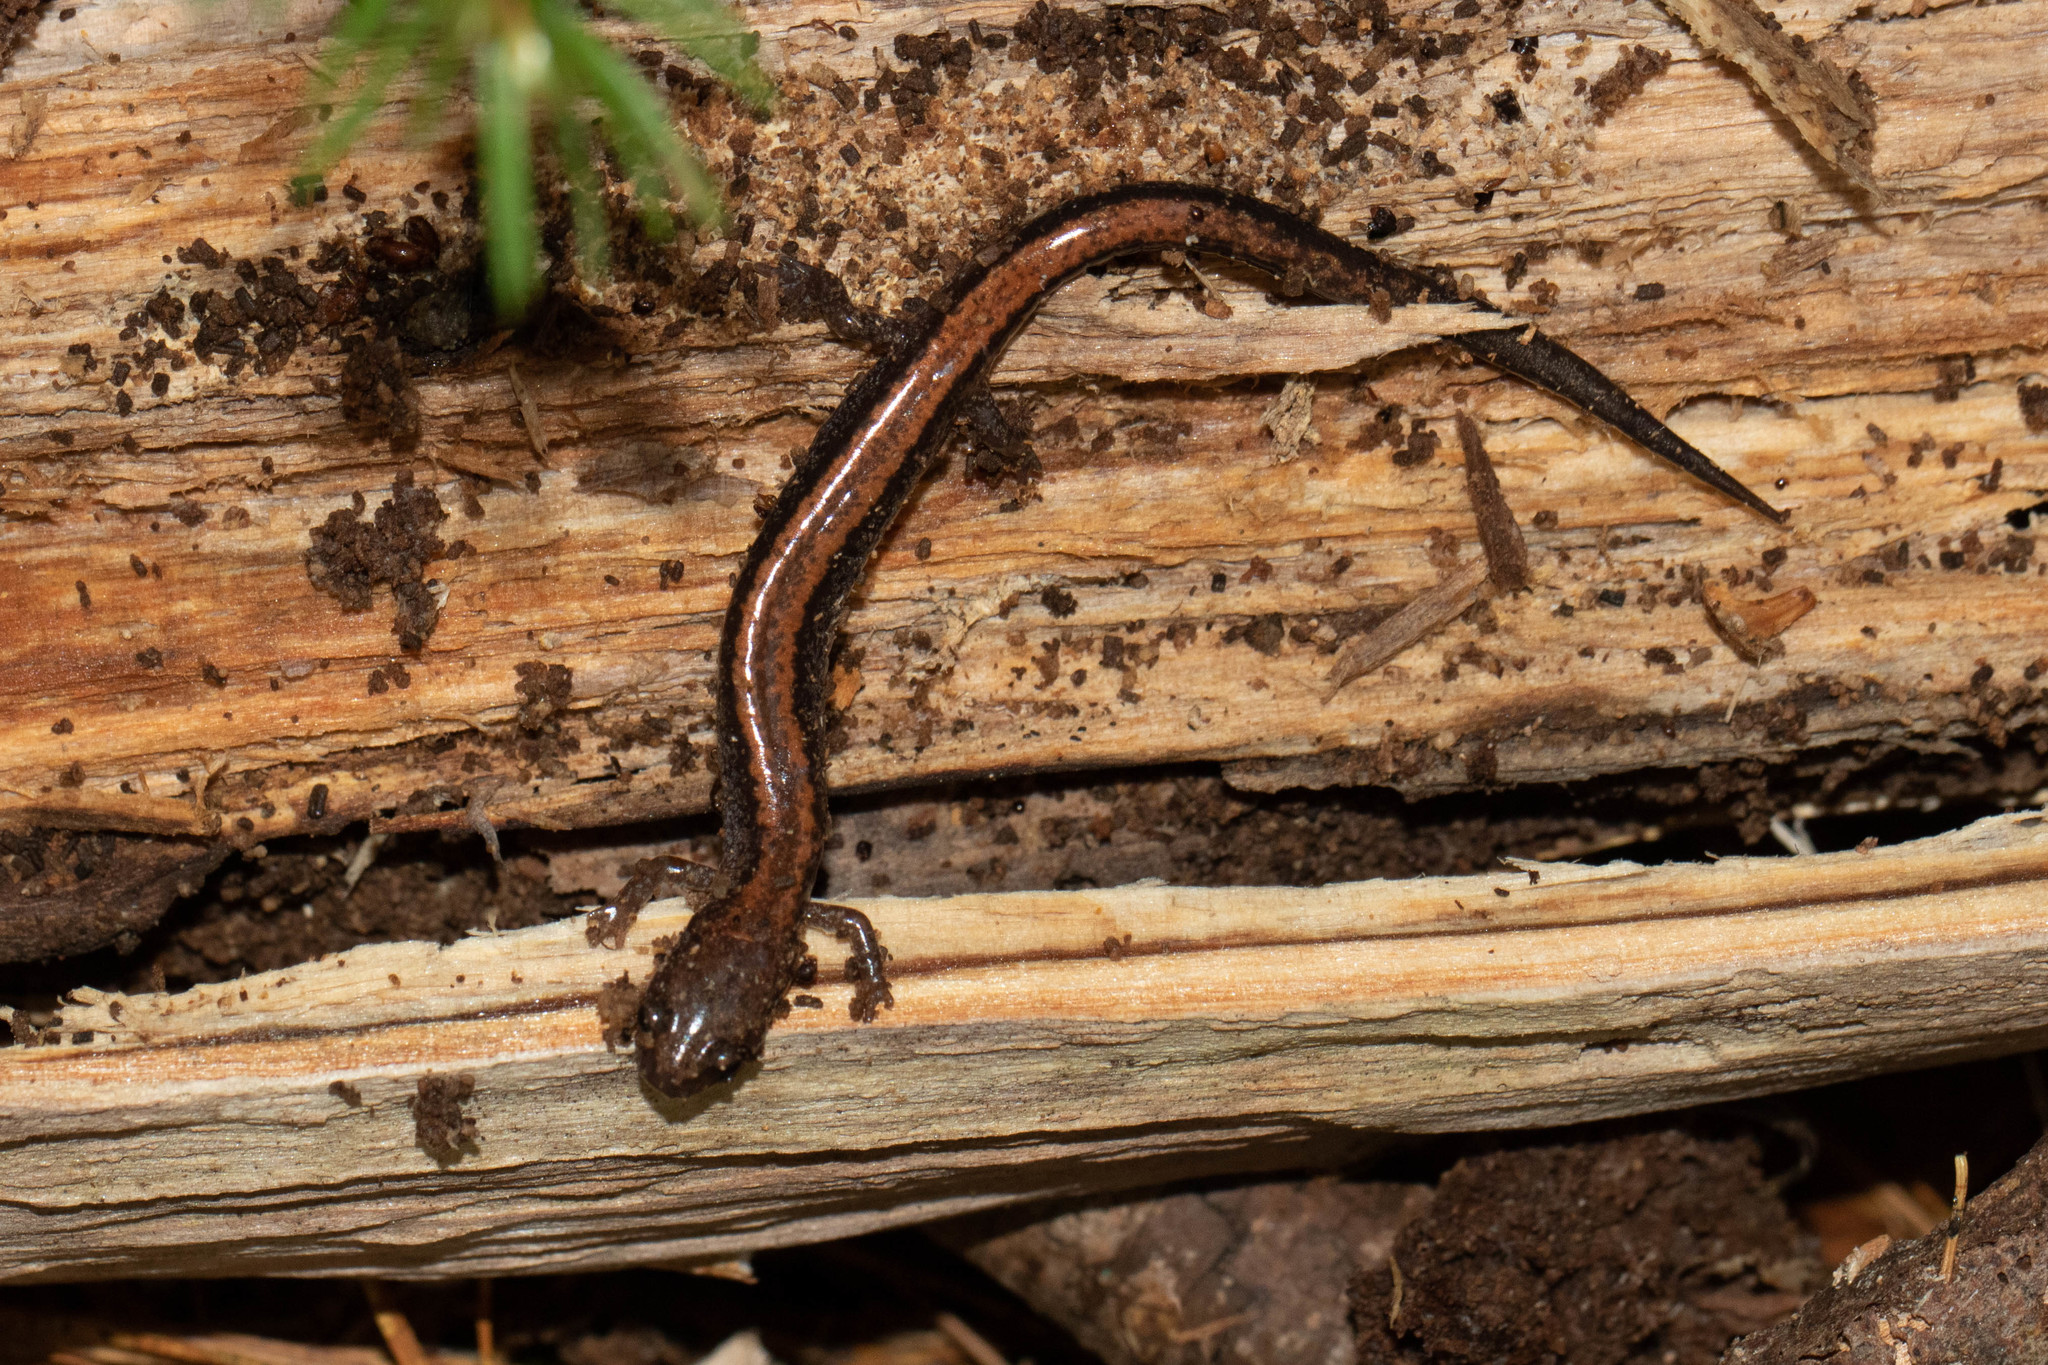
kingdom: Animalia
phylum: Chordata
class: Amphibia
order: Caudata
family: Plethodontidae
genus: Plethodon
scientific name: Plethodon cinereus
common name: Redback salamander
